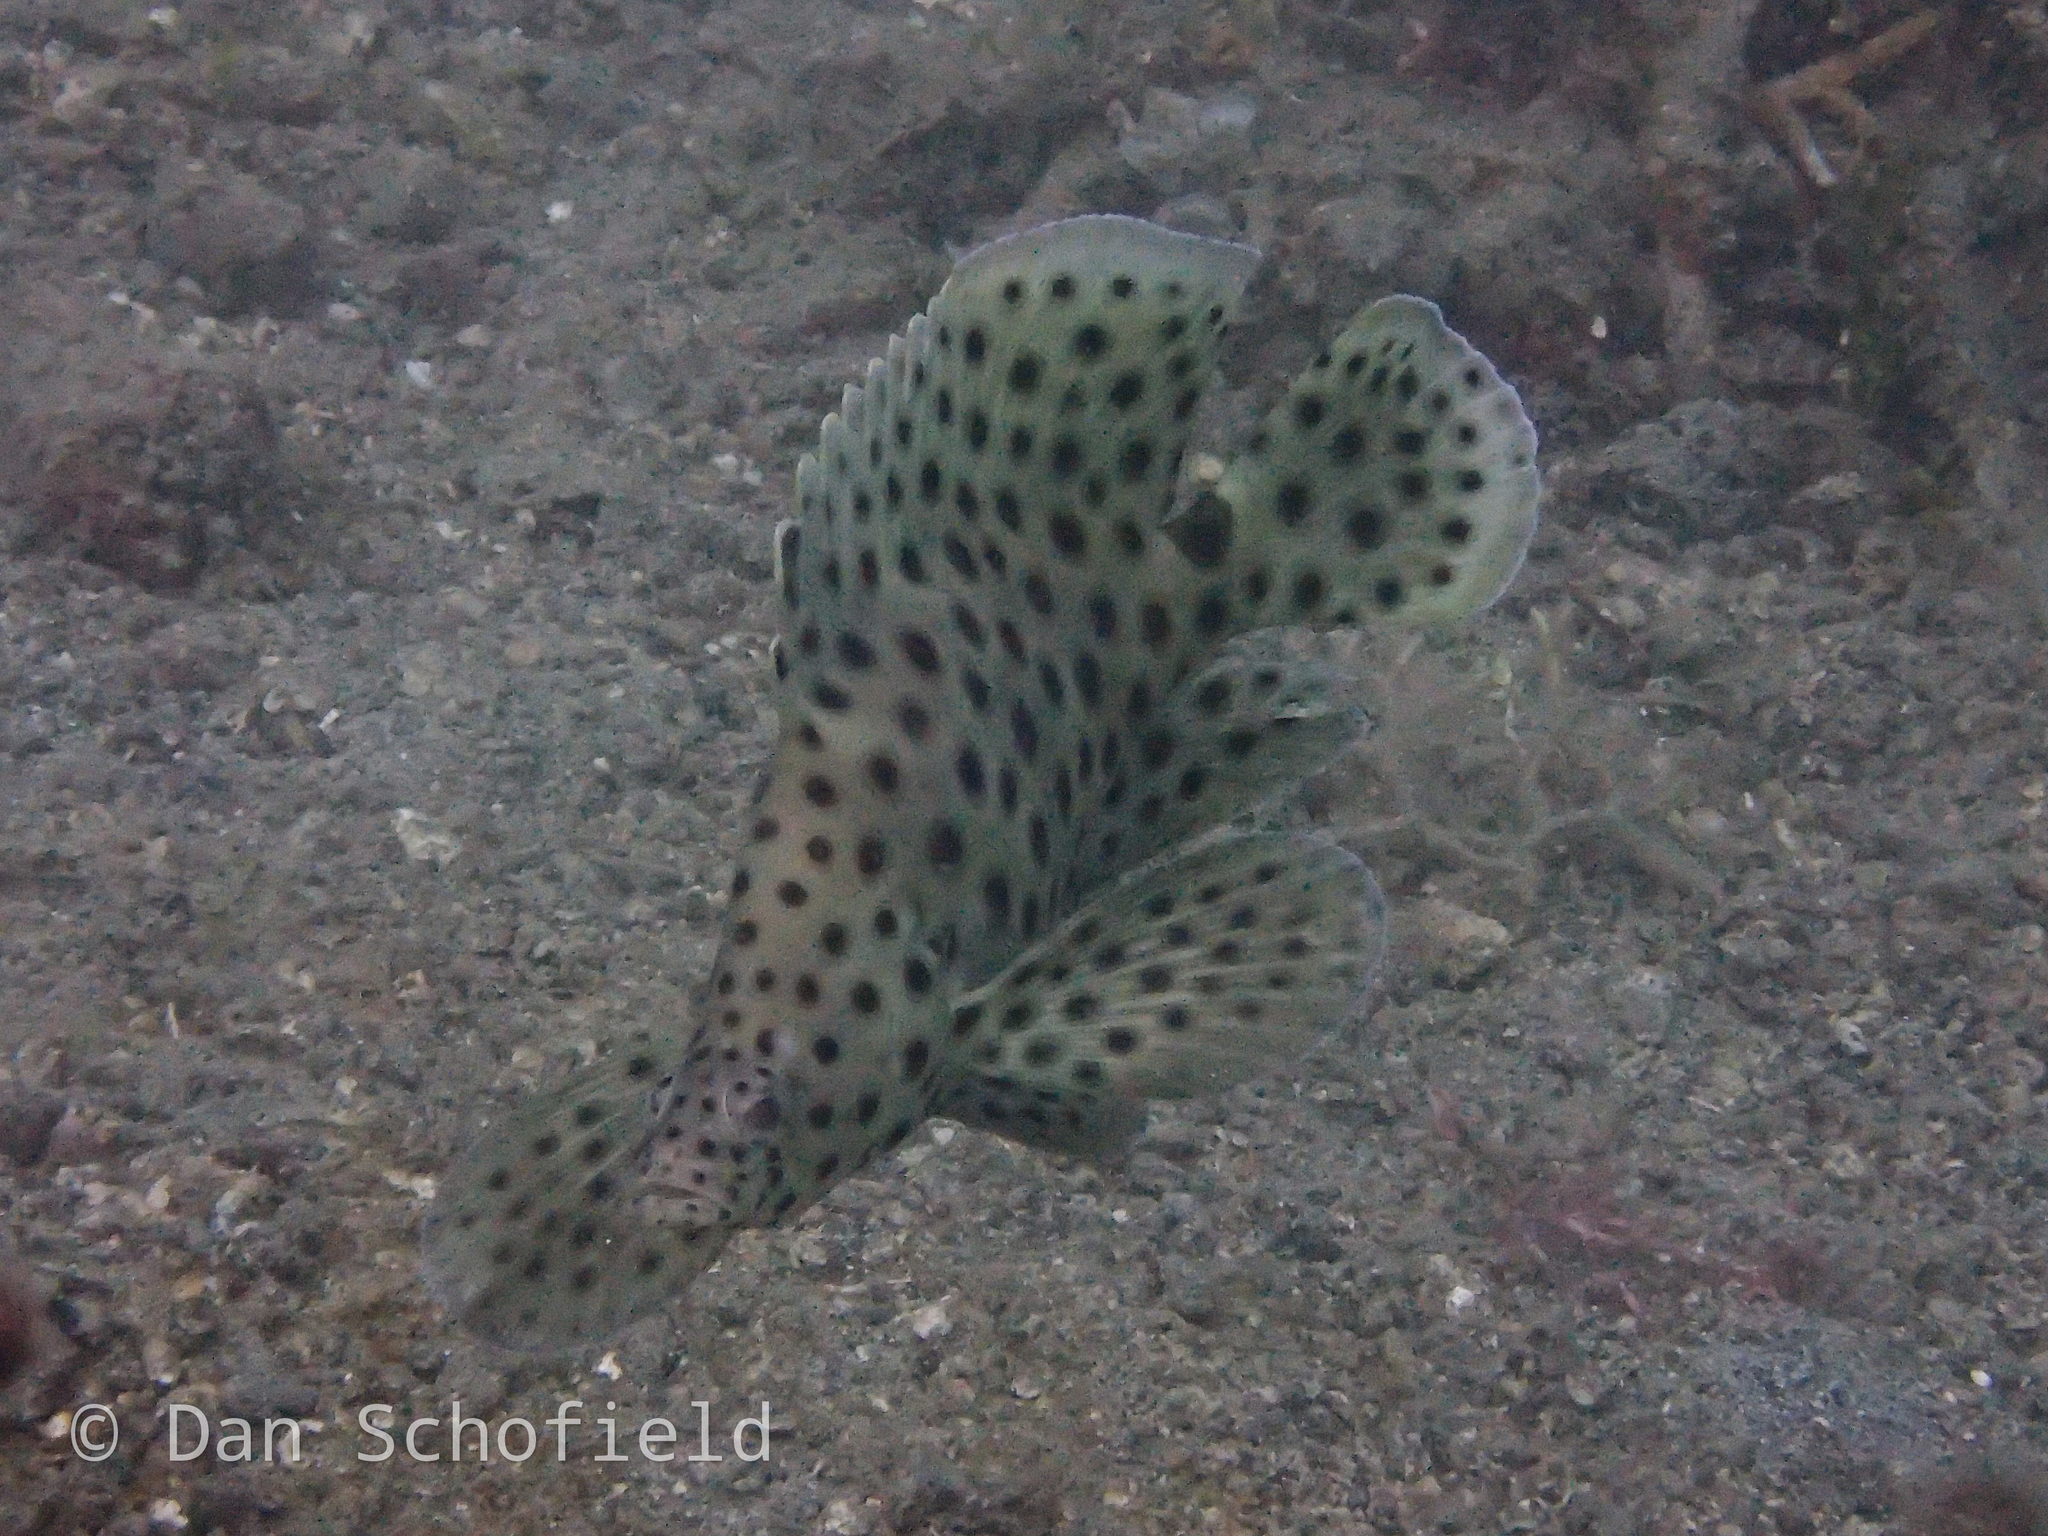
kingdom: Animalia
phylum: Chordata
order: Perciformes
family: Serranidae
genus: Cromileptes
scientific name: Cromileptes altivelis
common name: Humpback grouper
